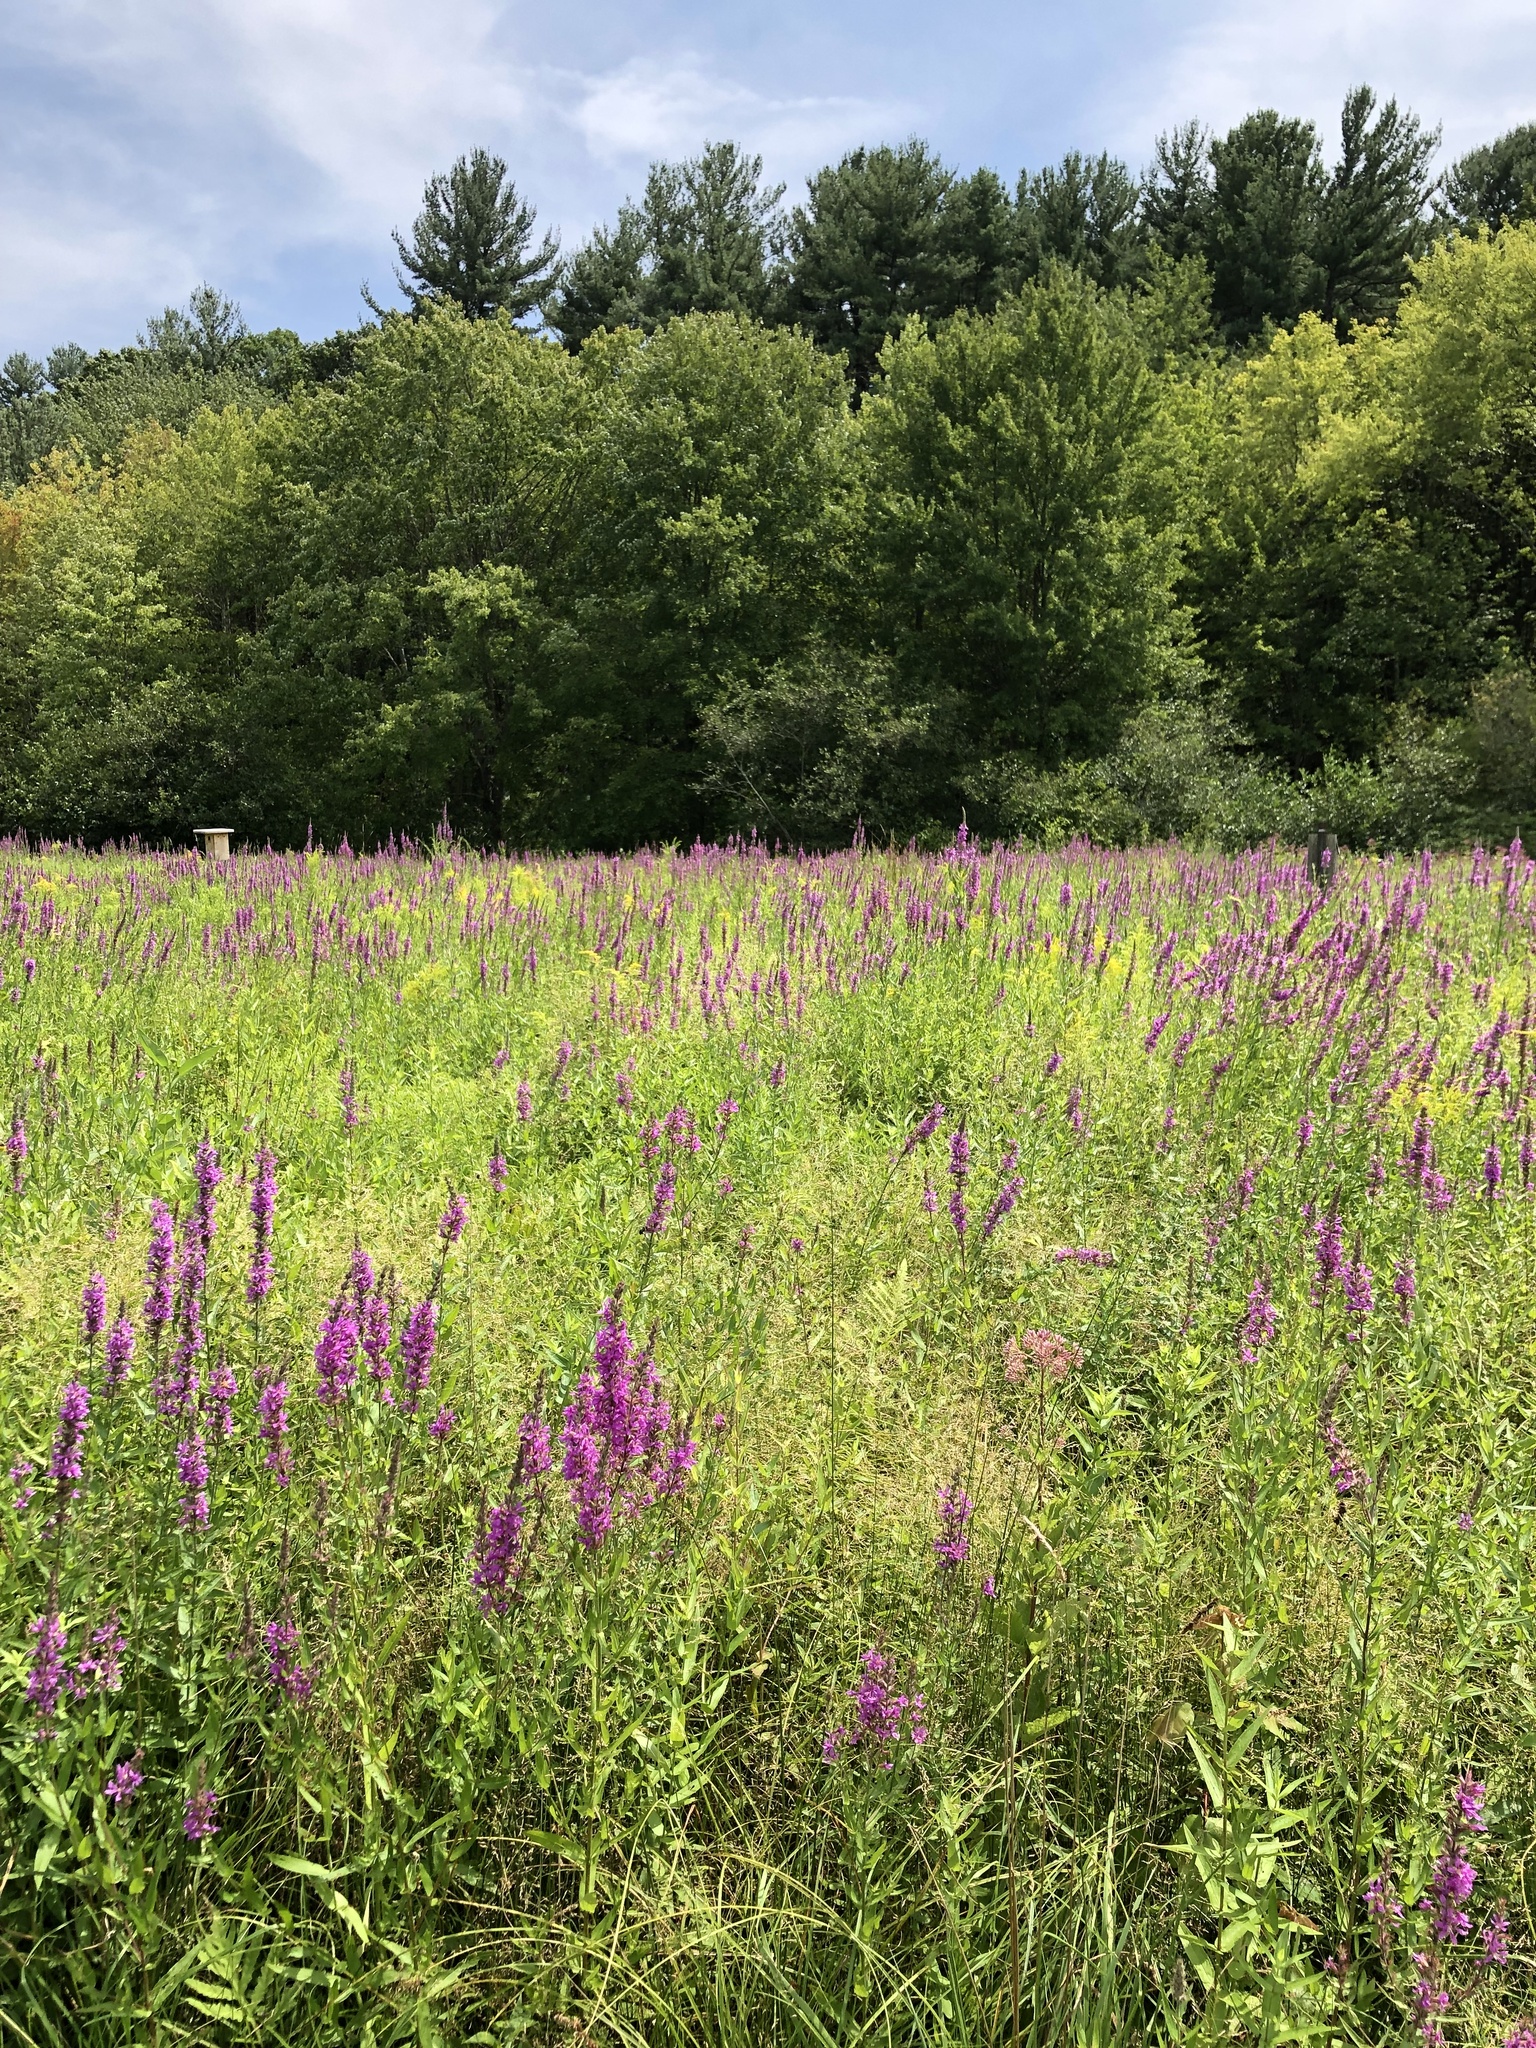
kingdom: Plantae
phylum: Tracheophyta
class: Magnoliopsida
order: Myrtales
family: Lythraceae
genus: Lythrum
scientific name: Lythrum salicaria
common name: Purple loosestrife
